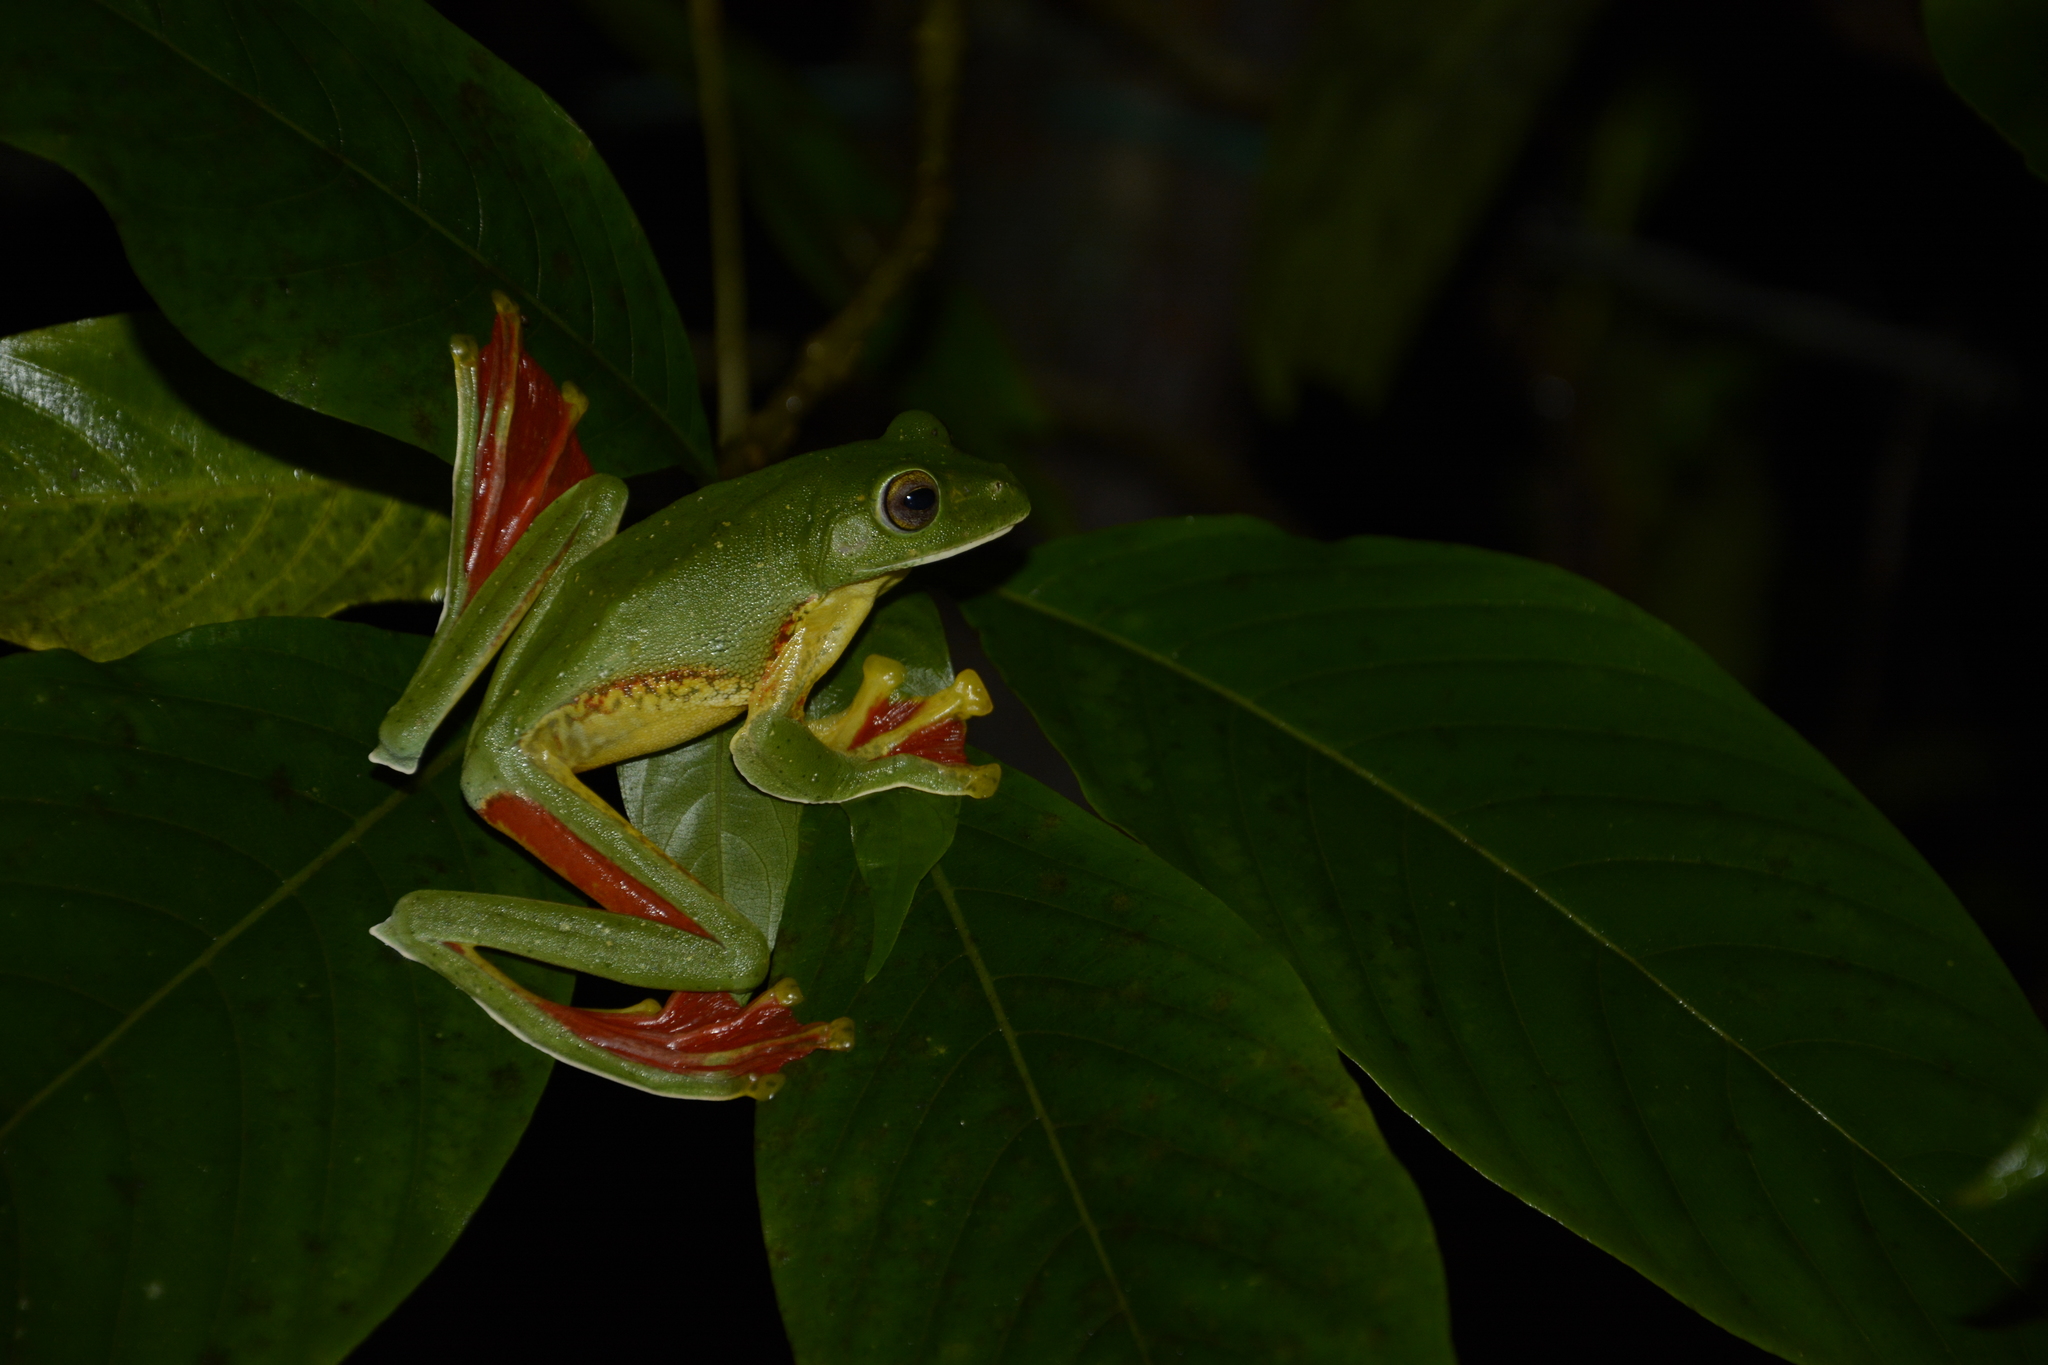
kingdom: Animalia
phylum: Chordata
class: Amphibia
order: Anura
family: Rhacophoridae
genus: Rhacophorus
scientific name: Rhacophorus malabaricus
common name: Malabar gliding frog
